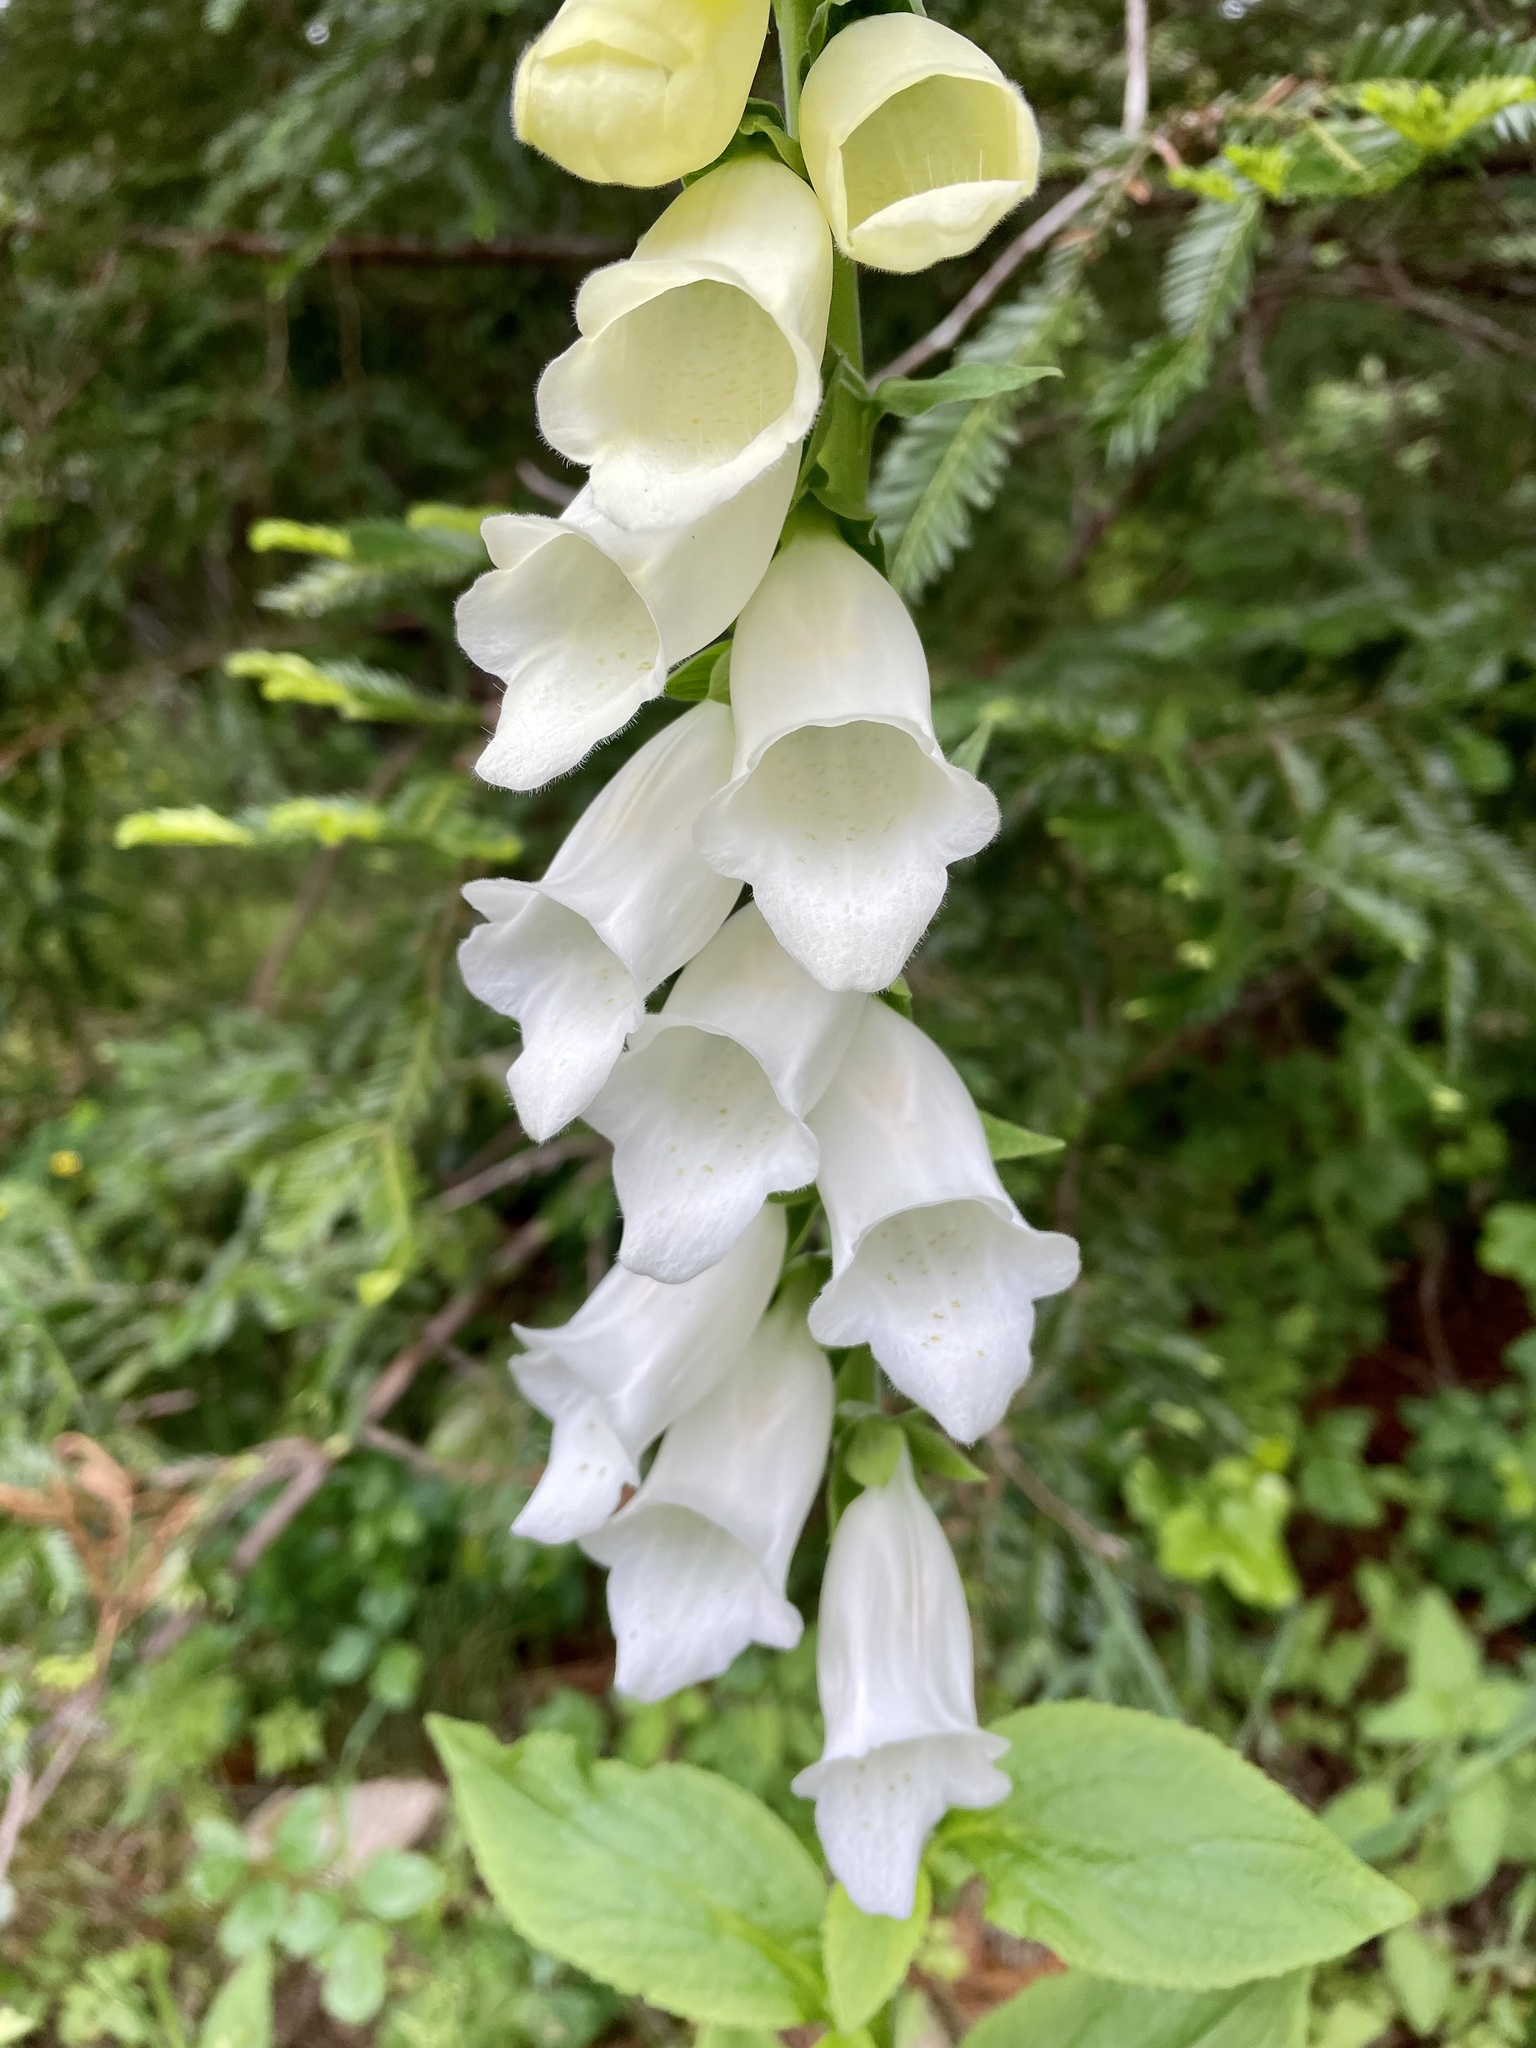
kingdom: Plantae
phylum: Tracheophyta
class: Magnoliopsida
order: Lamiales
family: Plantaginaceae
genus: Digitalis
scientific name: Digitalis purpurea
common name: Foxglove
